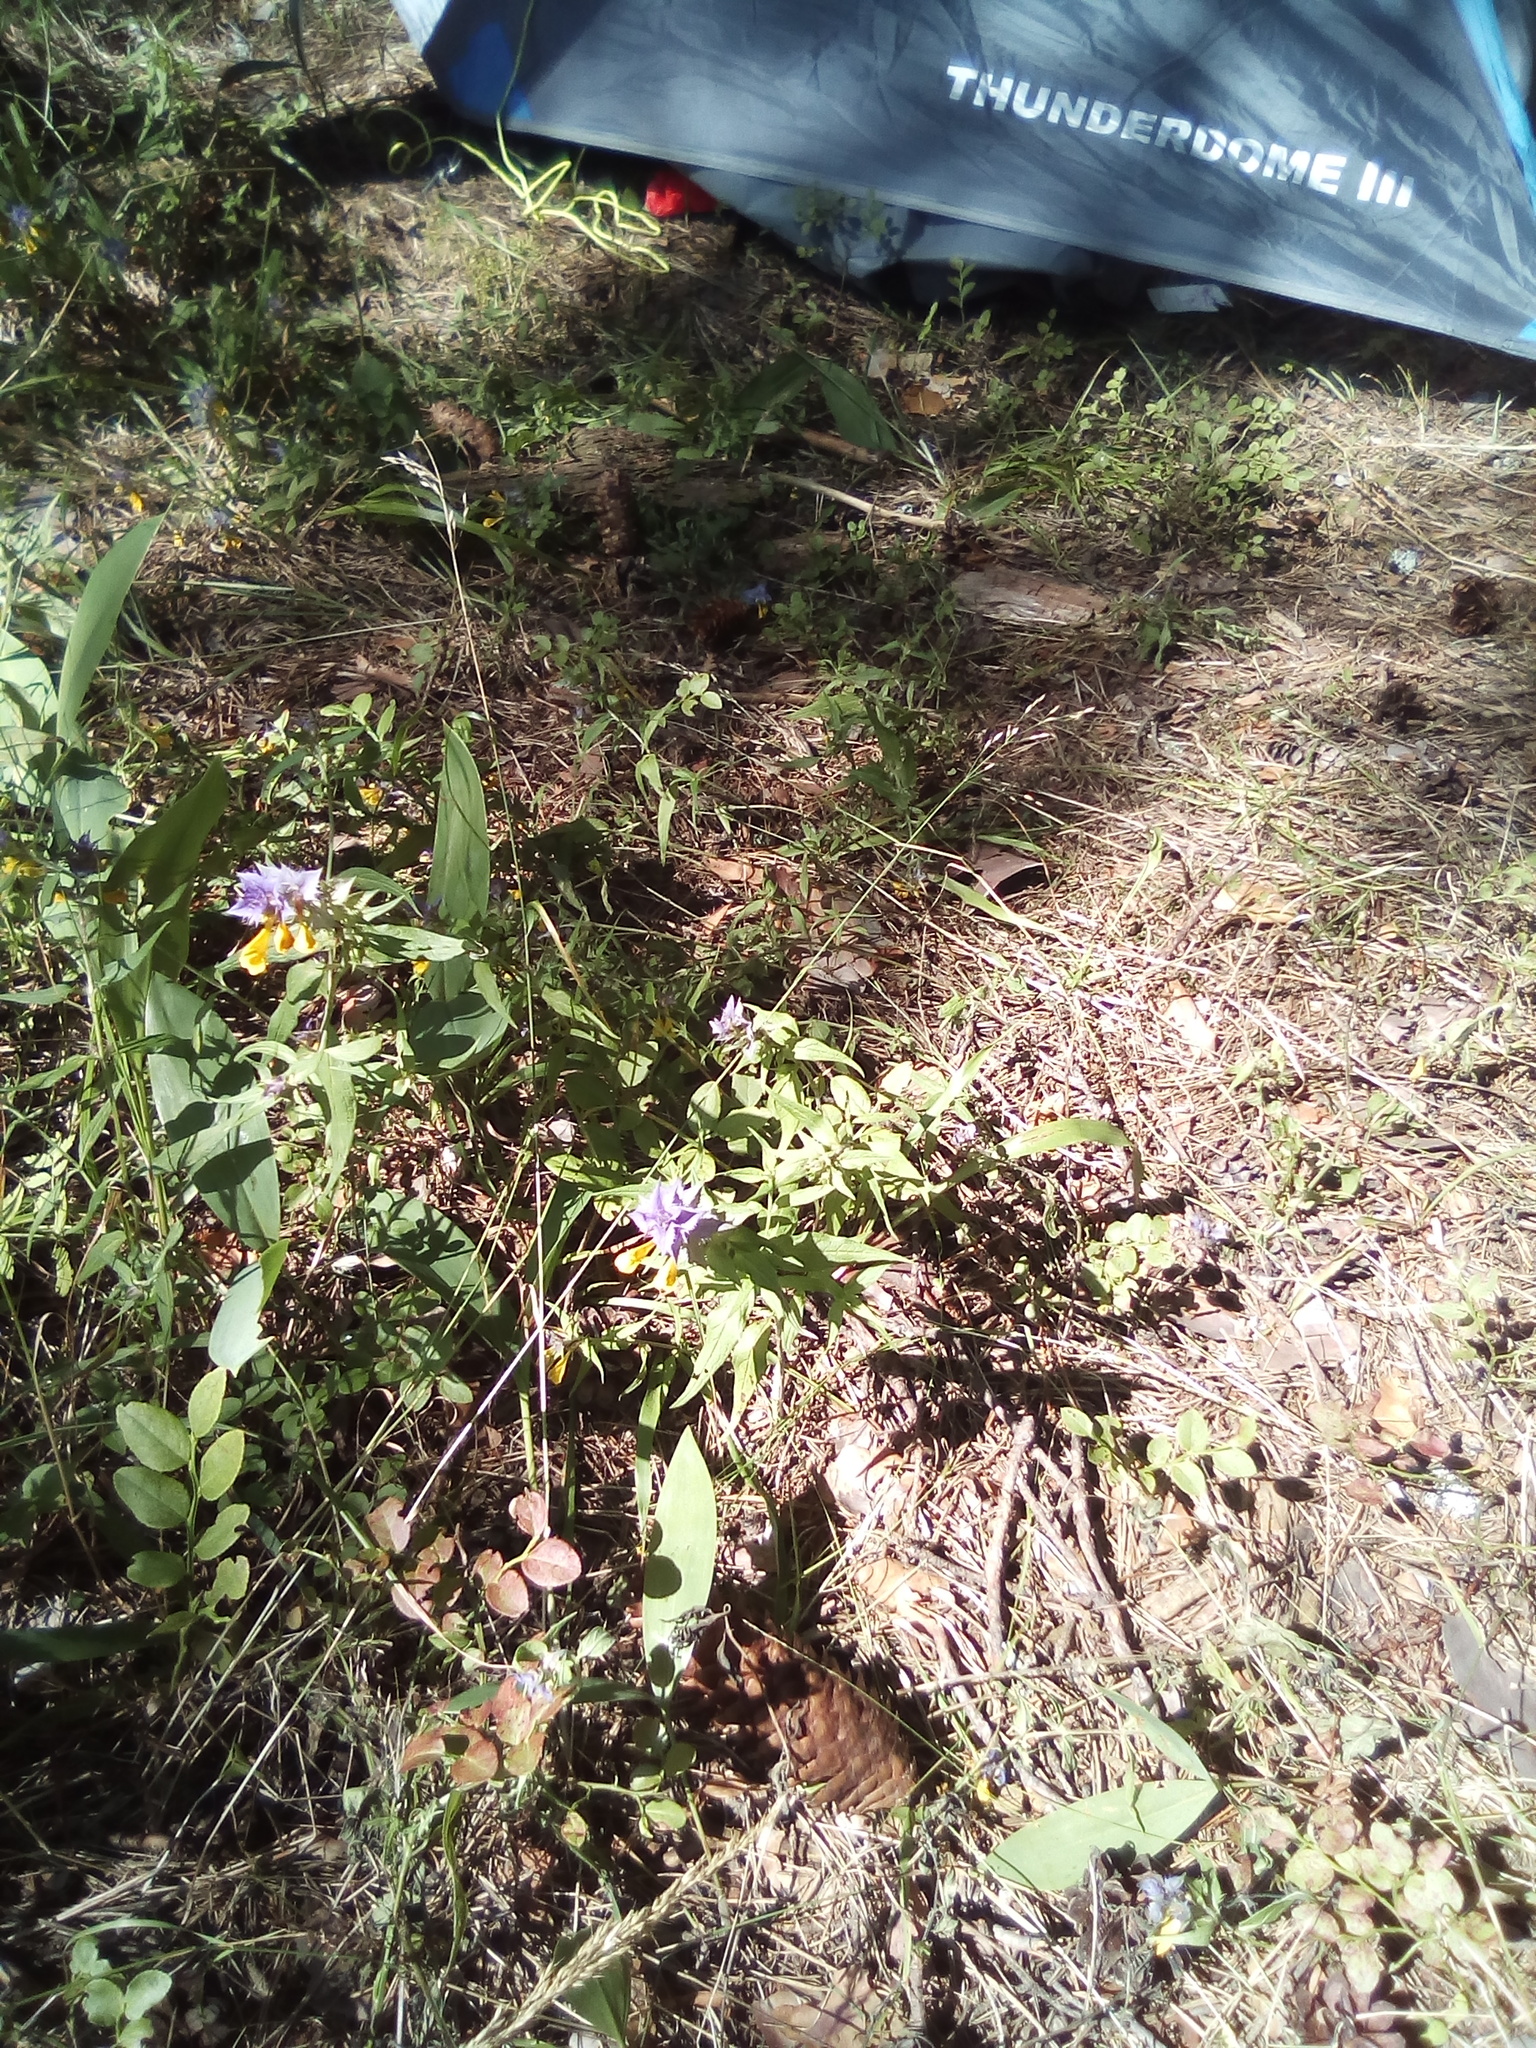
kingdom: Plantae
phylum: Tracheophyta
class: Magnoliopsida
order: Lamiales
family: Orobanchaceae
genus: Melampyrum
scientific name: Melampyrum nemorosum
